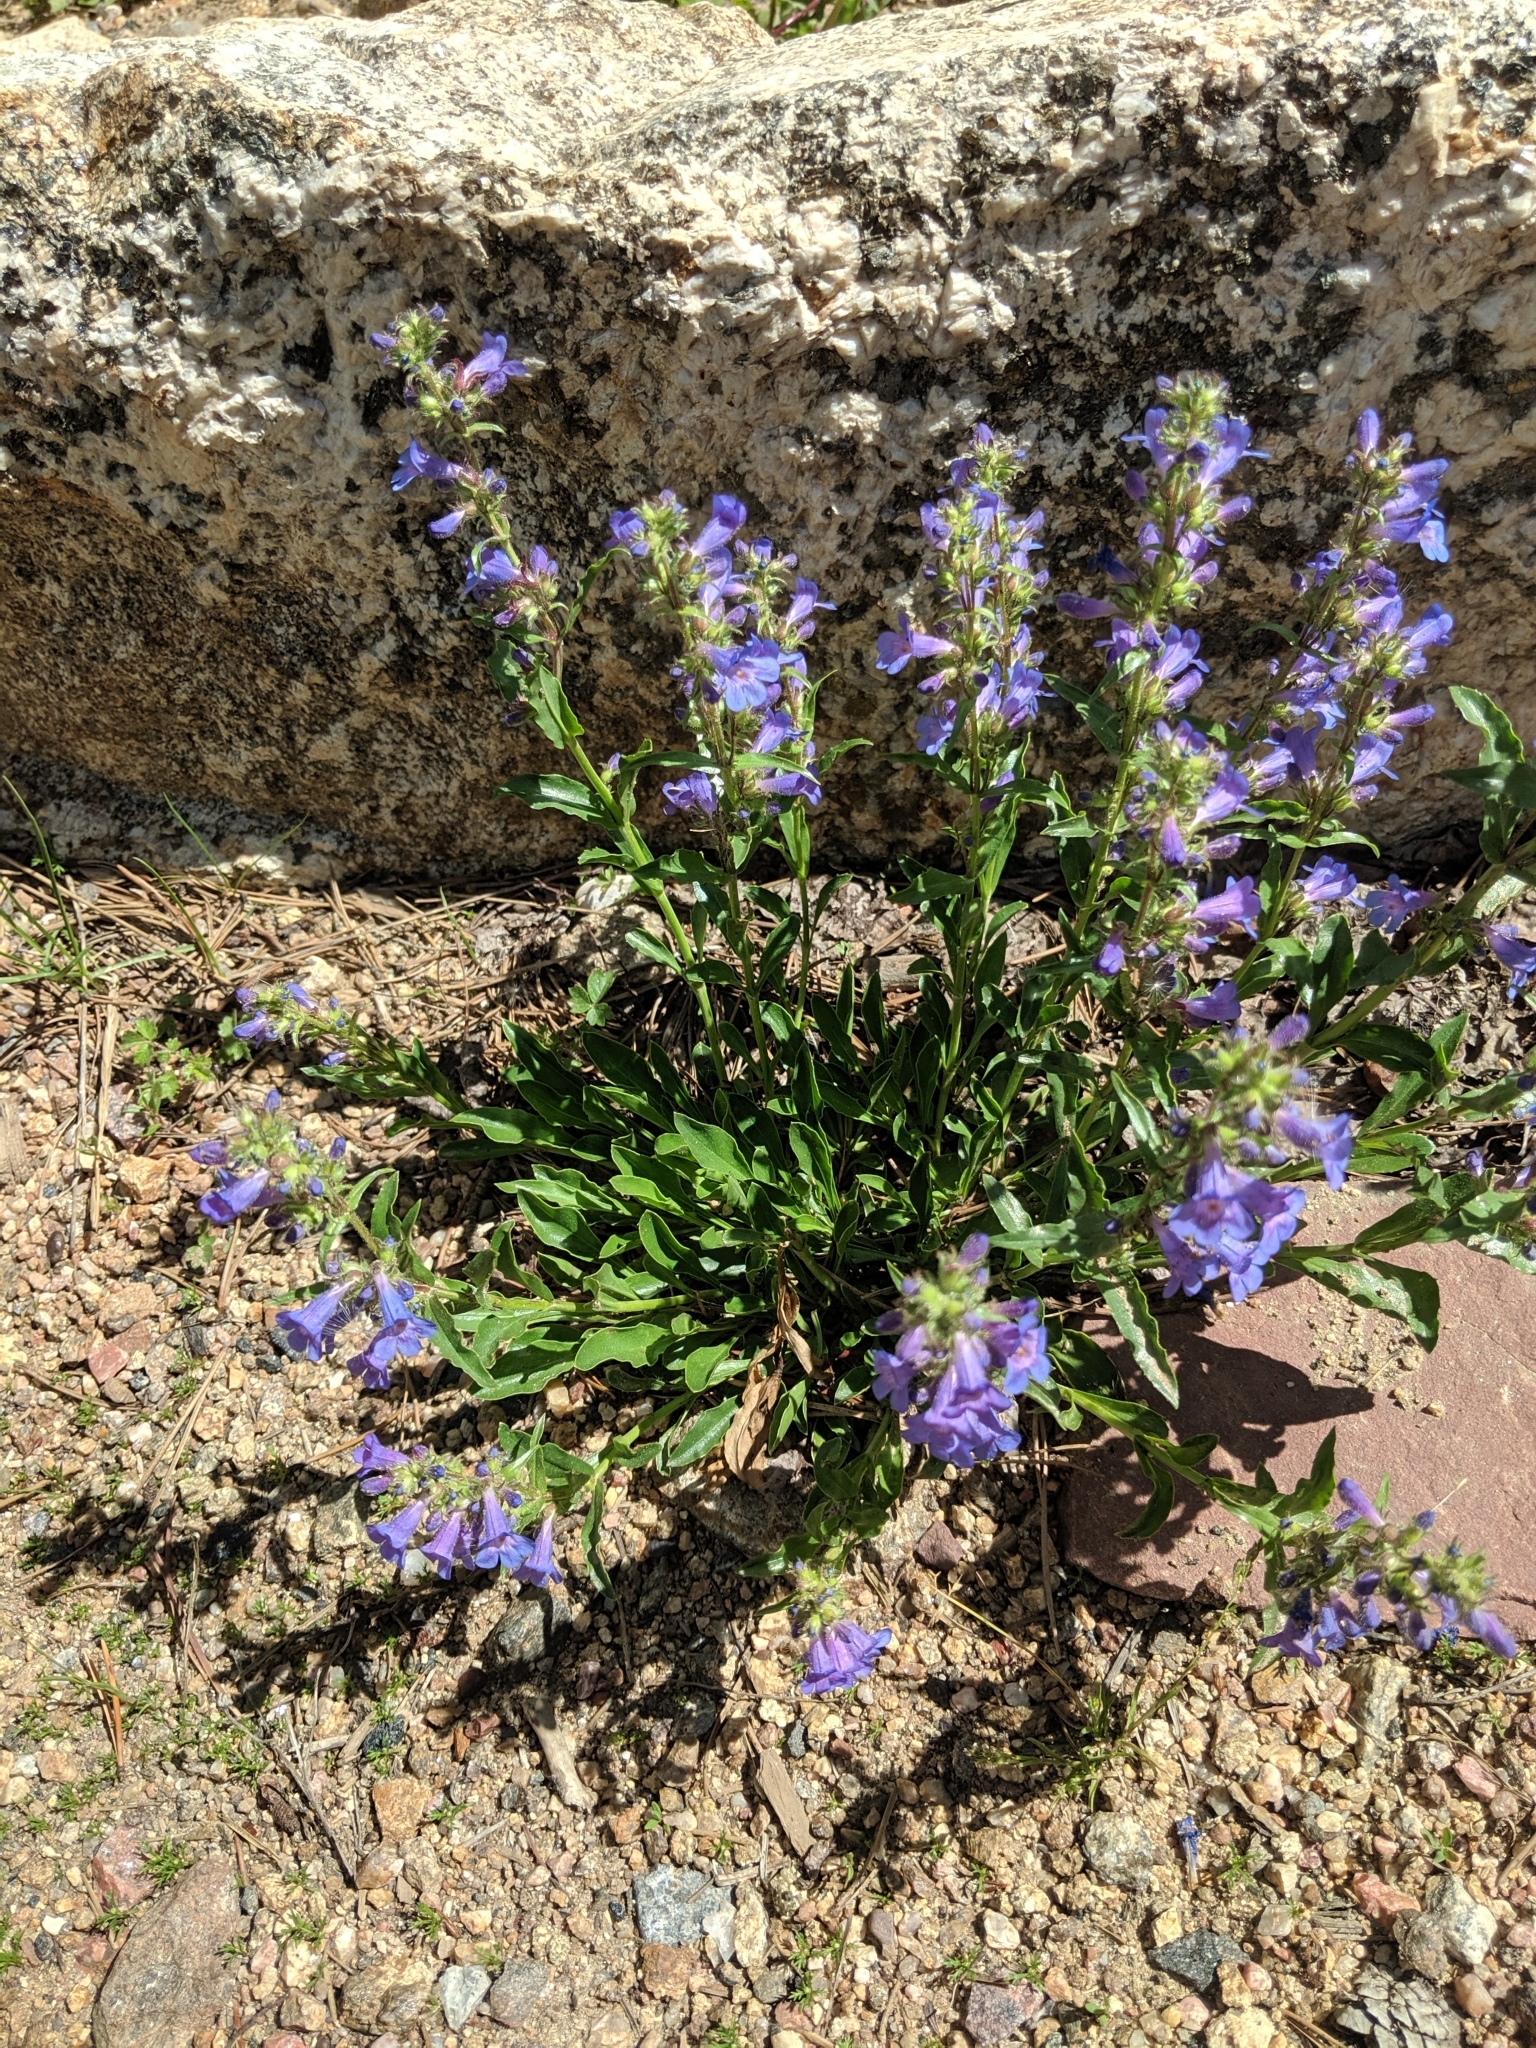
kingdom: Plantae
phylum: Tracheophyta
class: Magnoliopsida
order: Lamiales
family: Plantaginaceae
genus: Penstemon
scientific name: Penstemon virens
